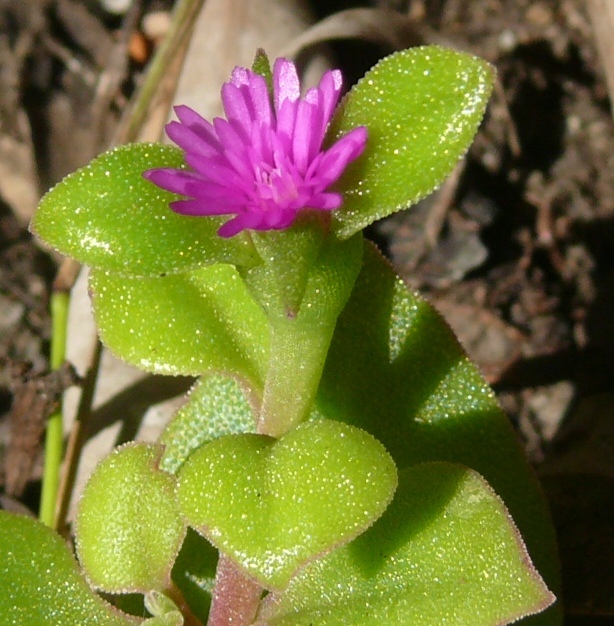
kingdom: Plantae
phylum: Tracheophyta
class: Magnoliopsida
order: Caryophyllales
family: Aizoaceae
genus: Mesembryanthemum
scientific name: Mesembryanthemum cordifolium
